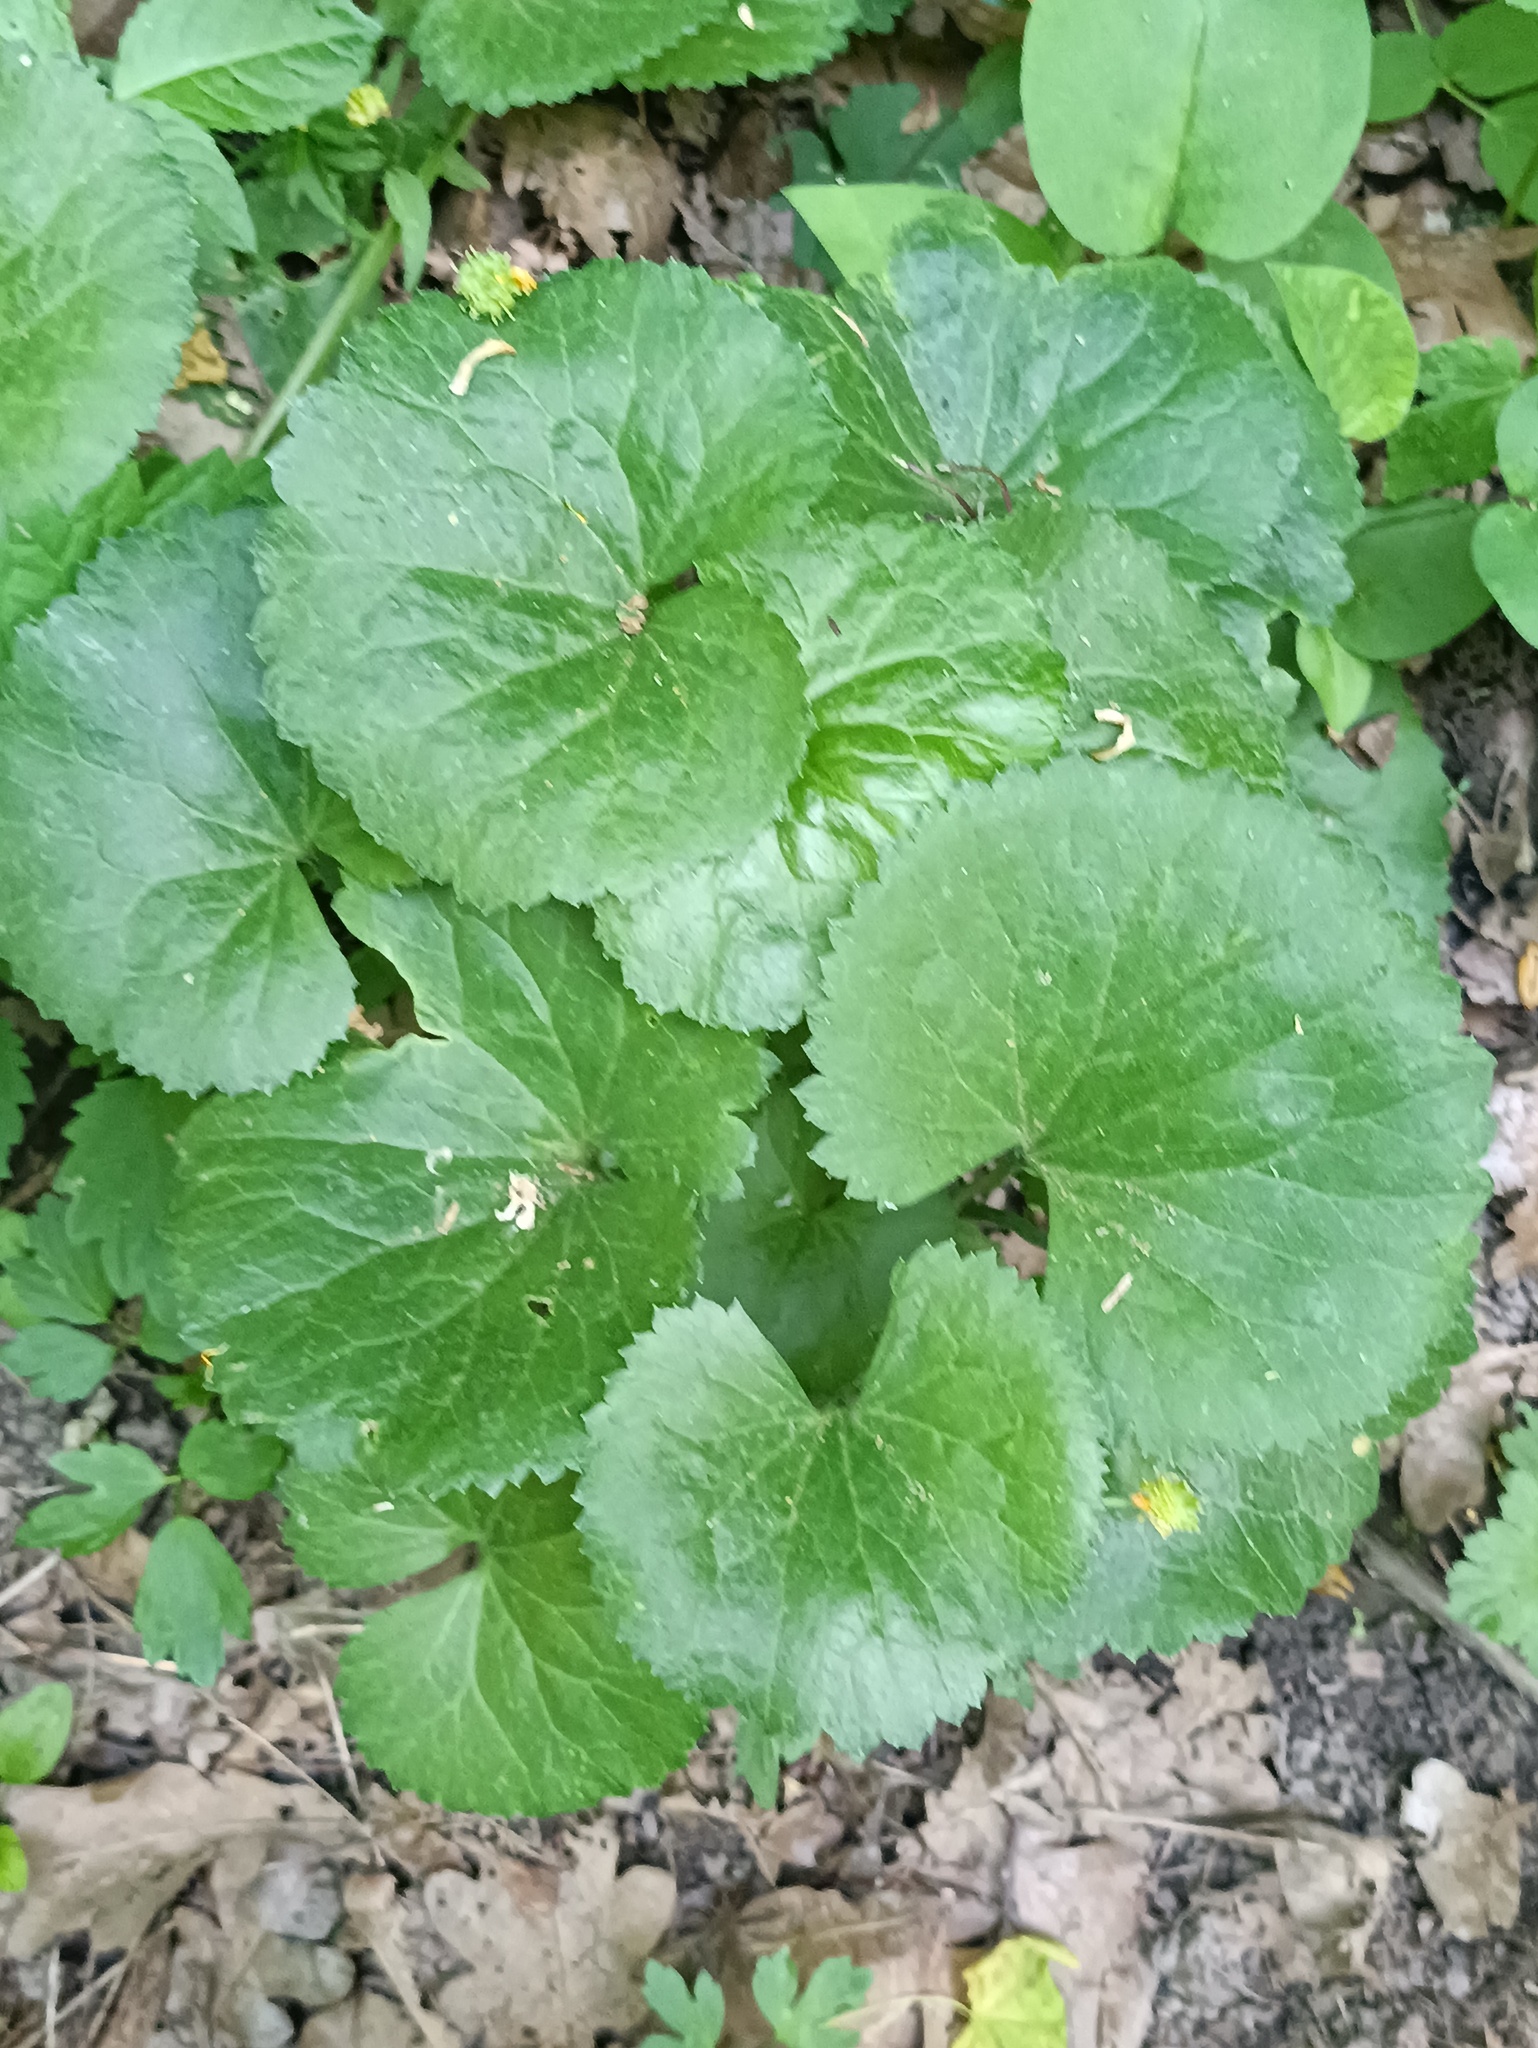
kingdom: Plantae
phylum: Tracheophyta
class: Magnoliopsida
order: Ranunculales
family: Ranunculaceae
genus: Ranunculus
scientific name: Ranunculus cassubicus
